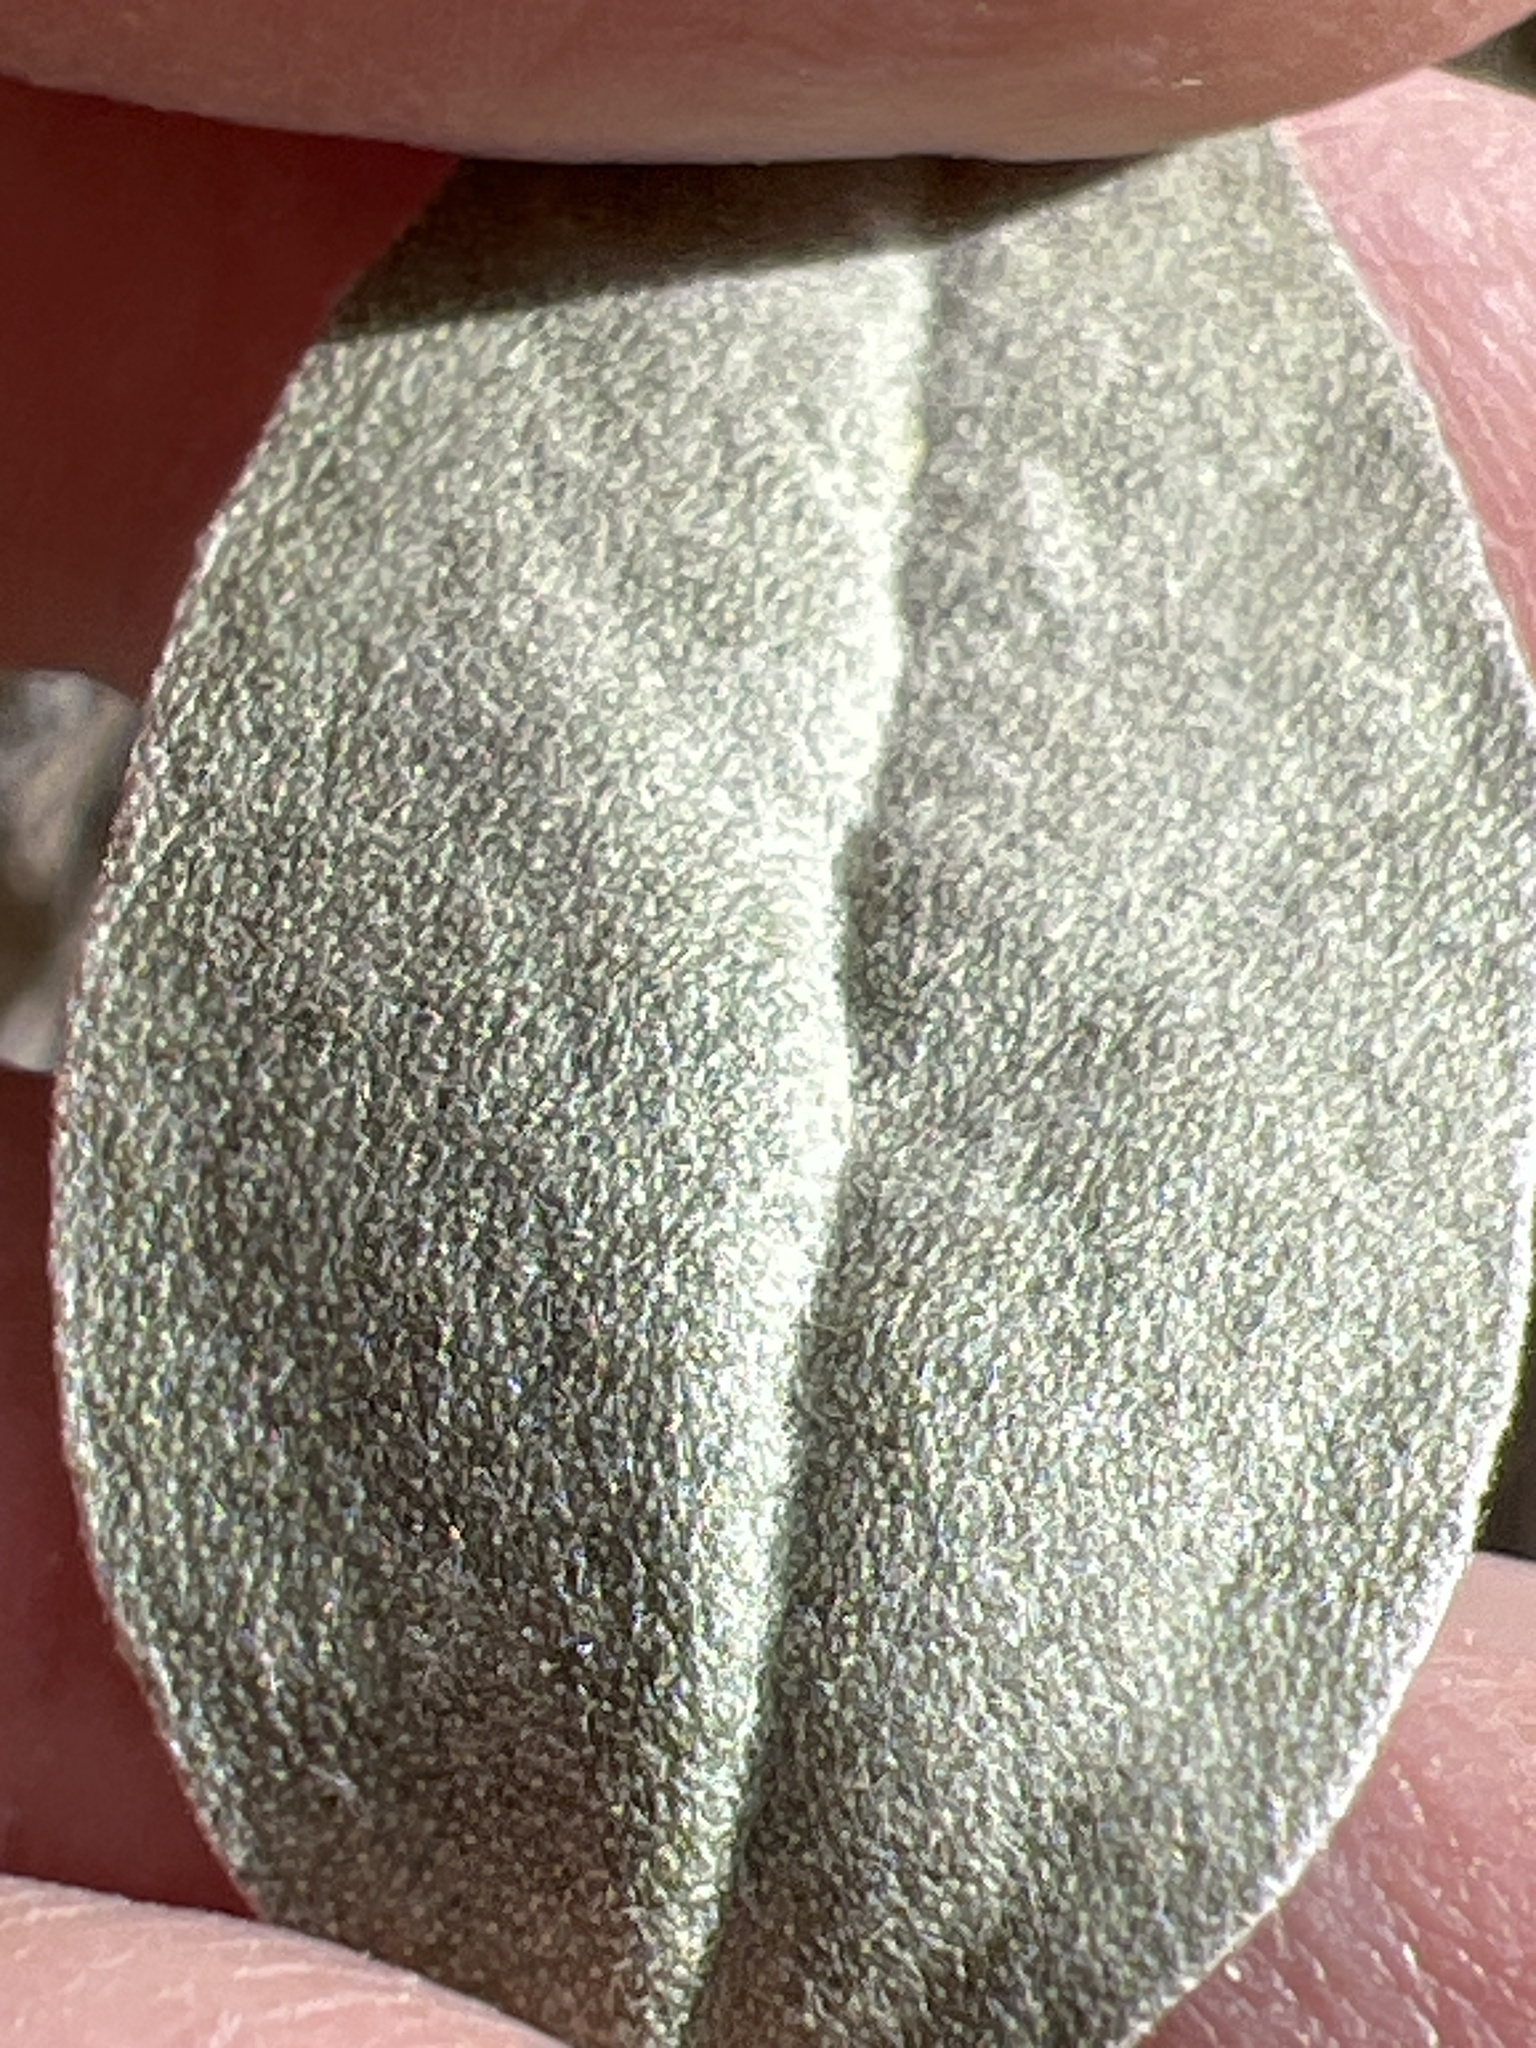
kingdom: Plantae
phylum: Tracheophyta
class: Magnoliopsida
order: Malpighiales
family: Euphorbiaceae
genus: Croton
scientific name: Croton californicus
